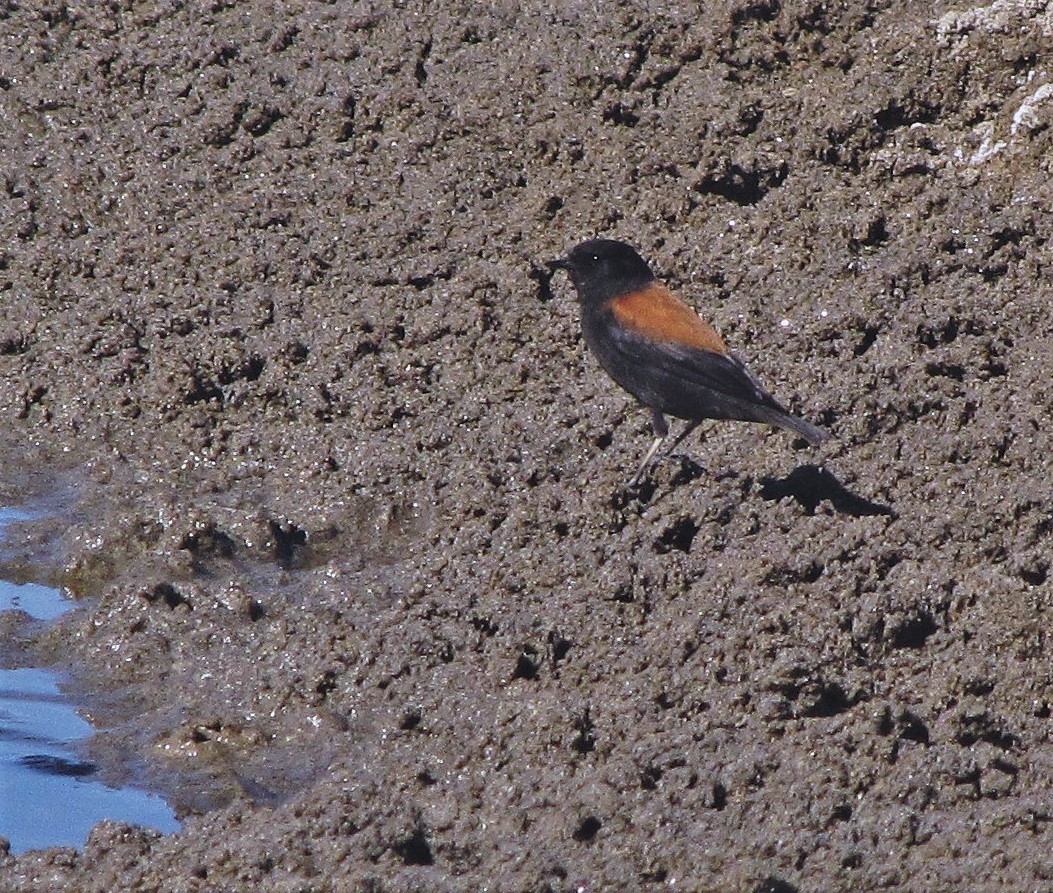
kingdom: Animalia
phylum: Chordata
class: Aves
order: Passeriformes
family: Tyrannidae
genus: Lessonia
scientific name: Lessonia oreas
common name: Andean negrito
